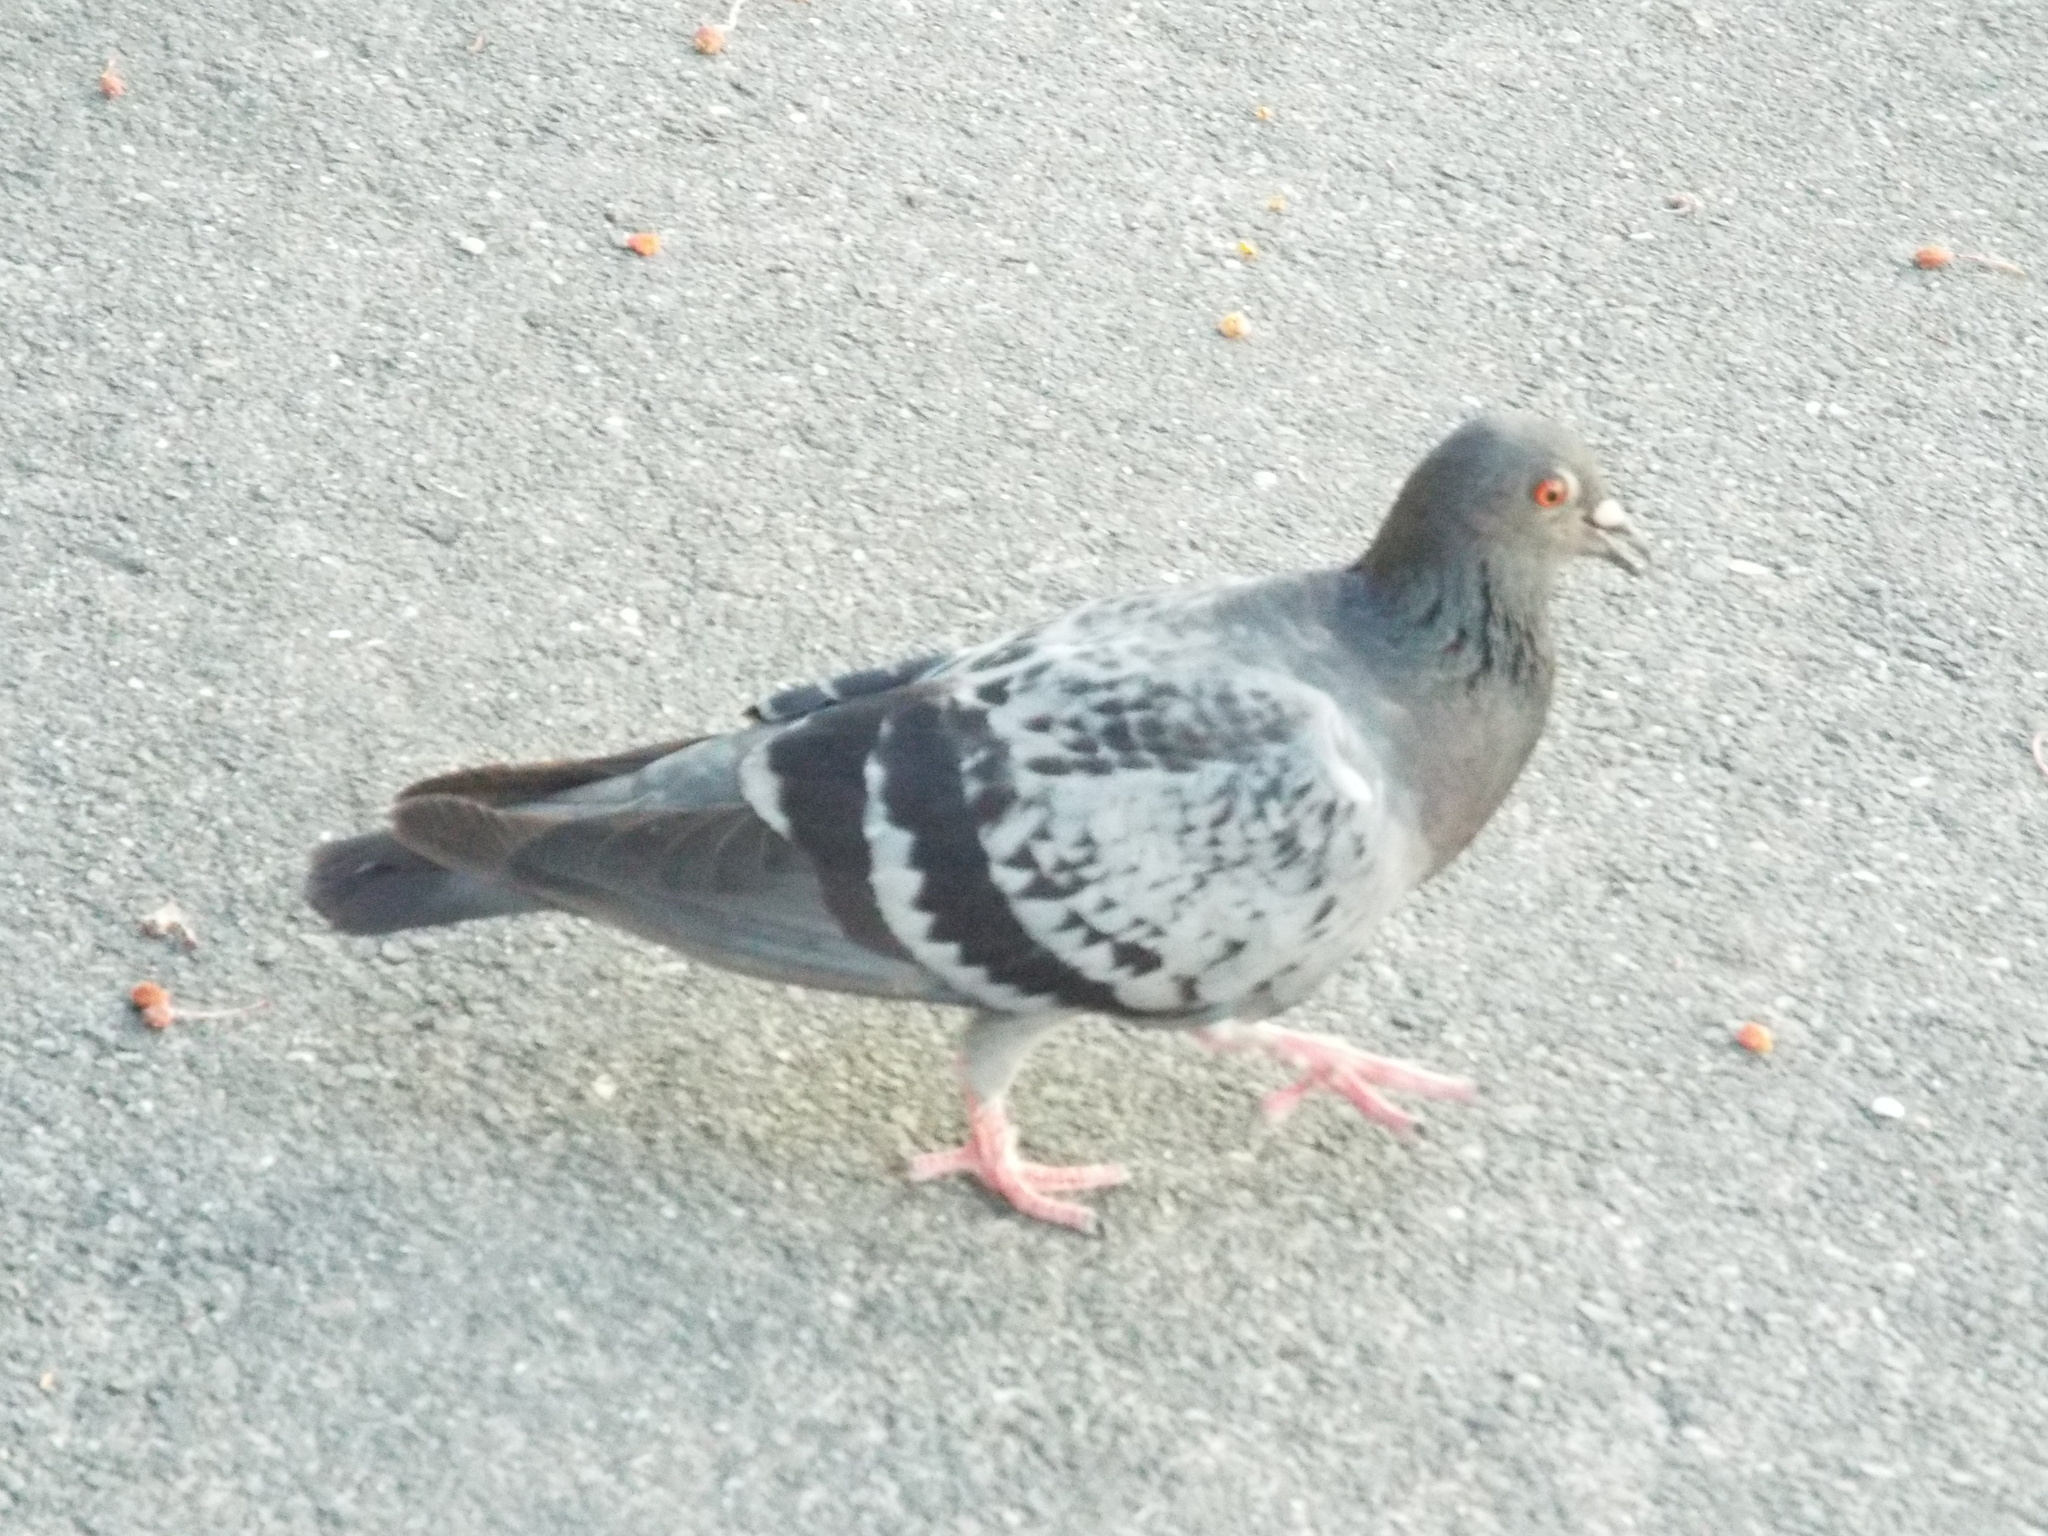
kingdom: Animalia
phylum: Chordata
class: Aves
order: Columbiformes
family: Columbidae
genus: Columba
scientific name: Columba livia
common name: Rock pigeon
